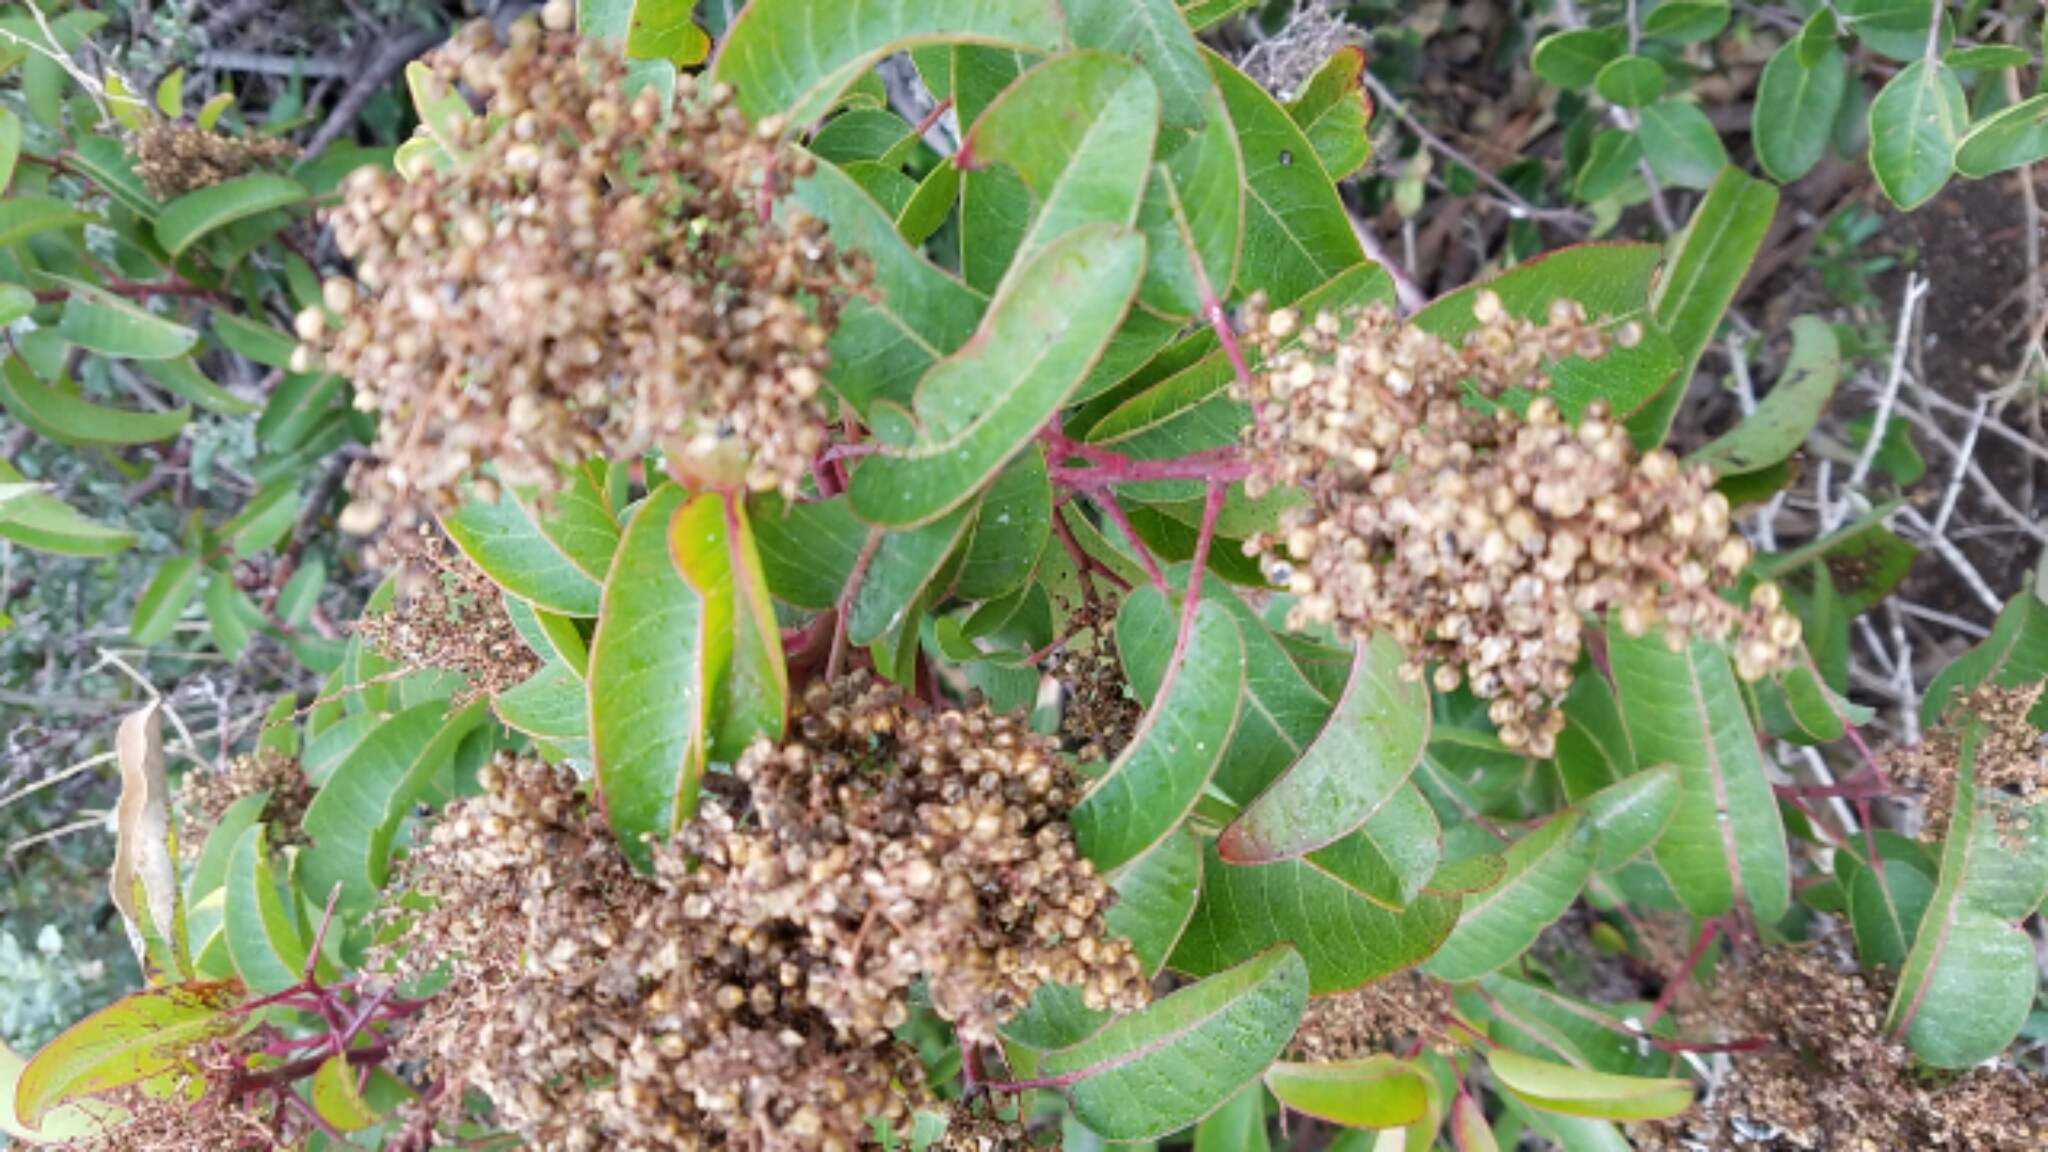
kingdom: Plantae
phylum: Tracheophyta
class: Magnoliopsida
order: Sapindales
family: Anacardiaceae
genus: Malosma
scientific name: Malosma laurina
